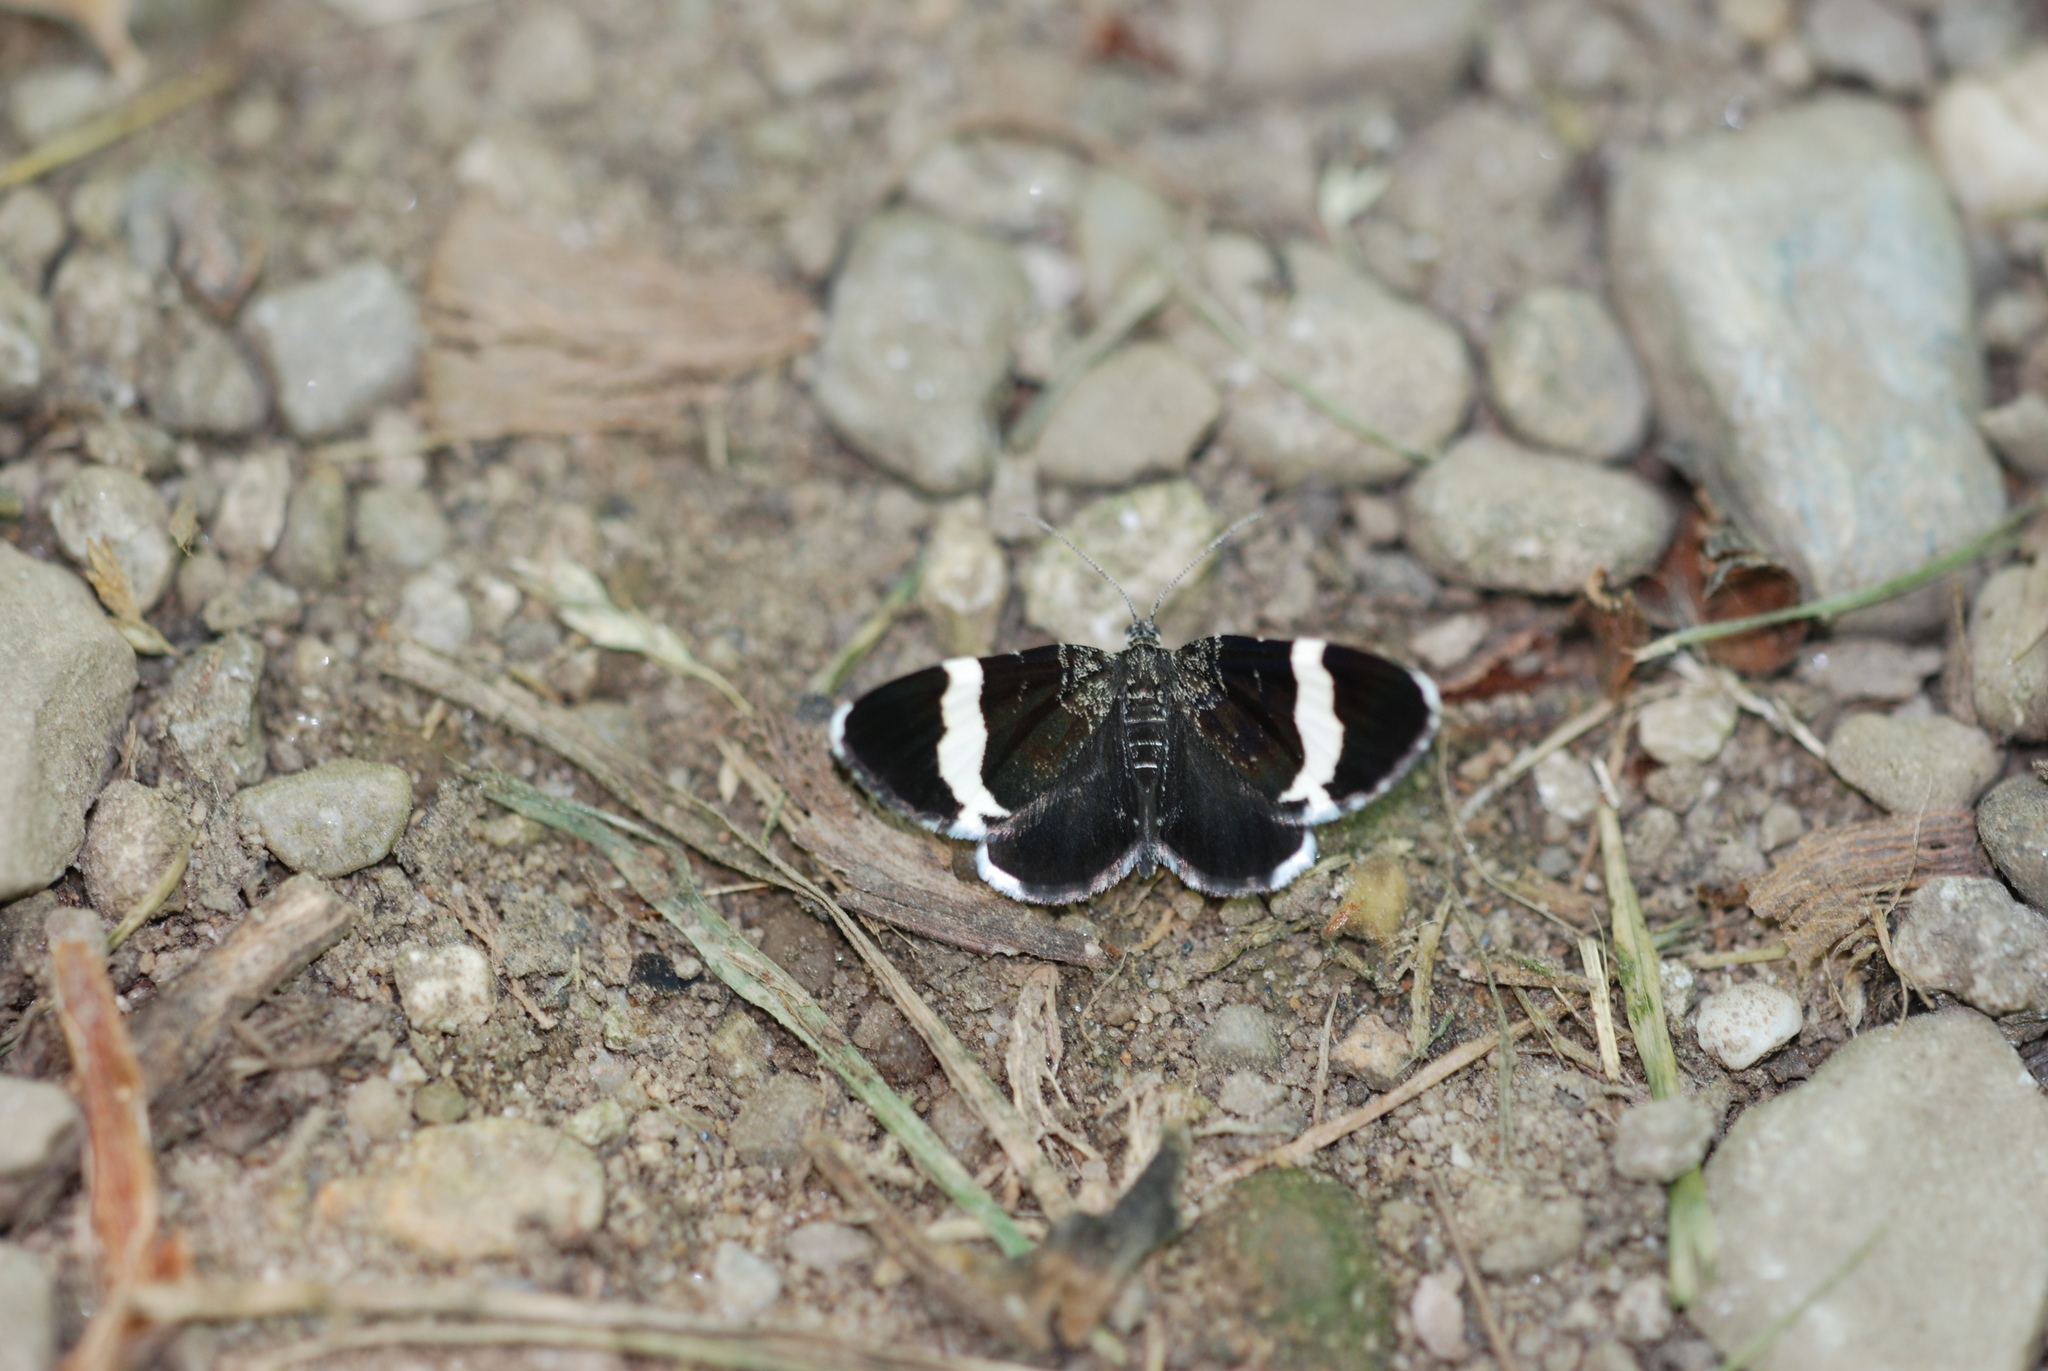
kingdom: Animalia
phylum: Arthropoda
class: Insecta
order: Lepidoptera
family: Geometridae
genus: Trichodezia
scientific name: Trichodezia albovittata
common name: White striped black
